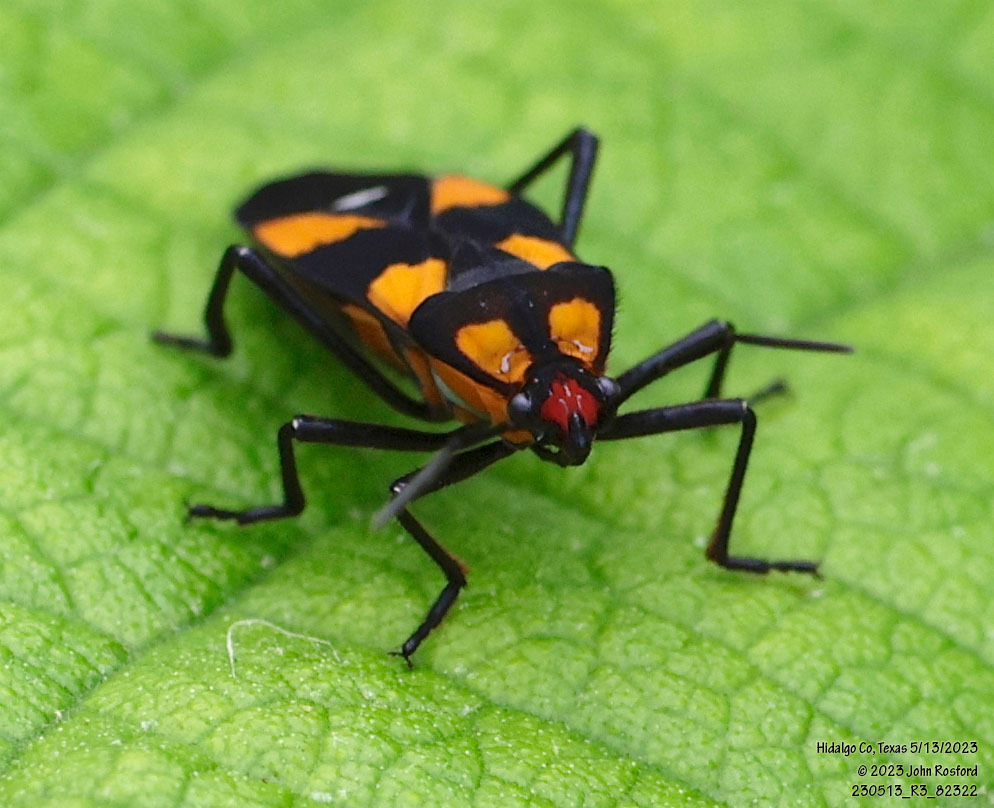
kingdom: Animalia
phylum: Arthropoda
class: Insecta
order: Hemiptera
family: Lygaeidae
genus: Oncopeltus
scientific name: Oncopeltus sexmaculatus
